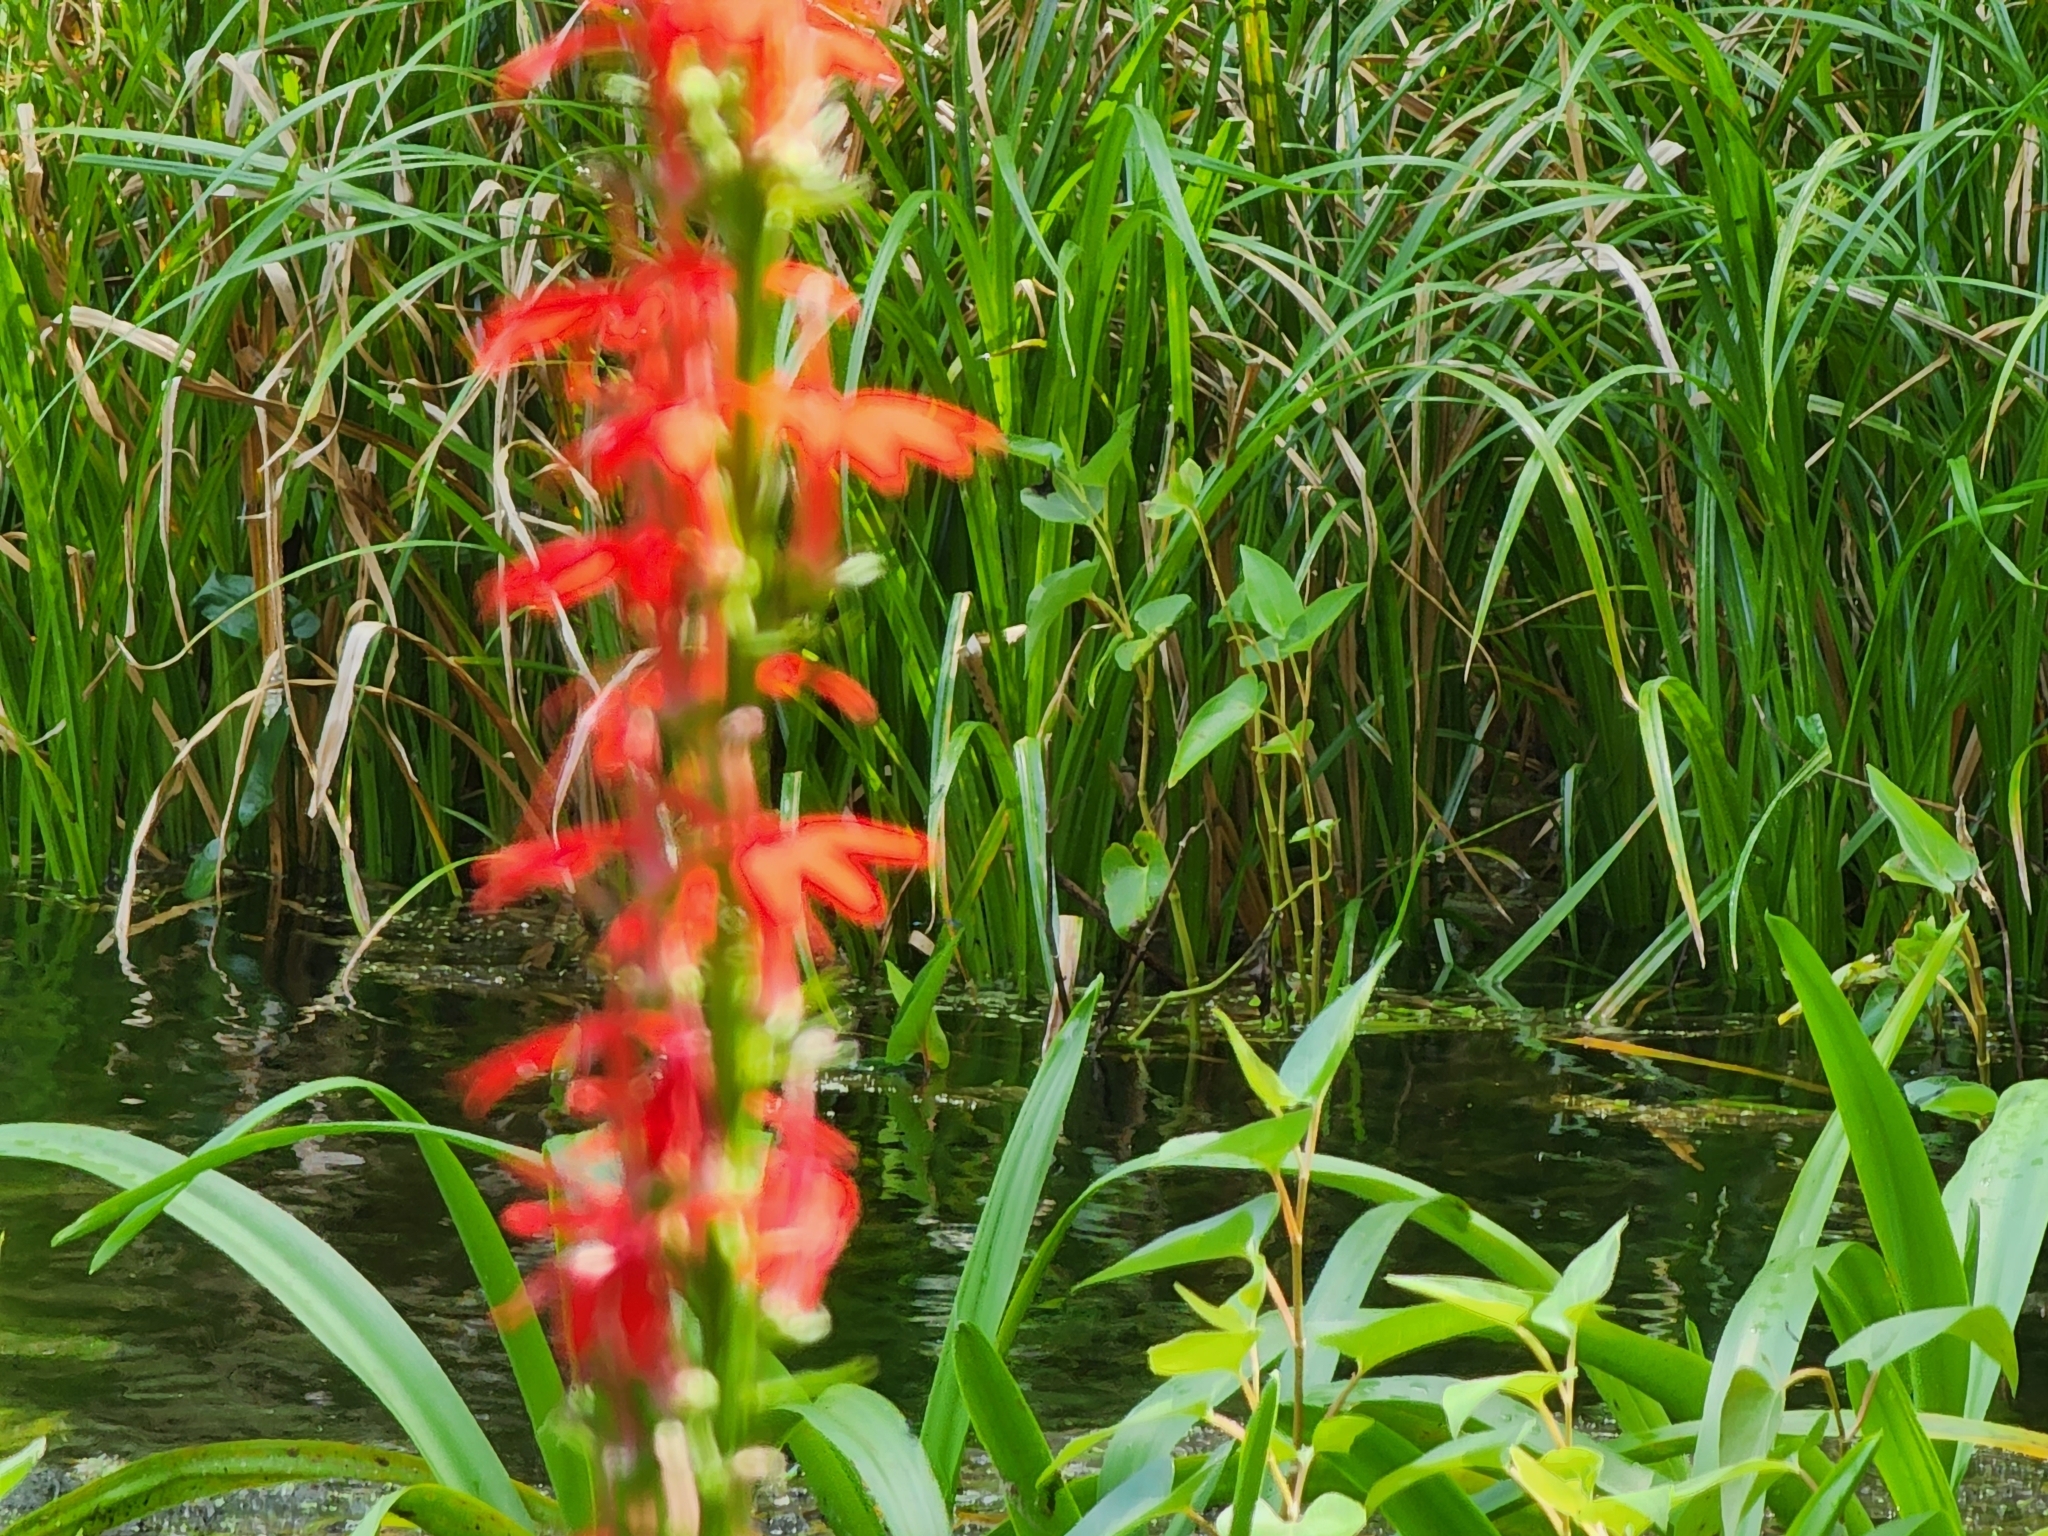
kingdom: Plantae
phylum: Tracheophyta
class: Magnoliopsida
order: Asterales
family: Campanulaceae
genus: Lobelia
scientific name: Lobelia cardinalis
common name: Cardinal flower
